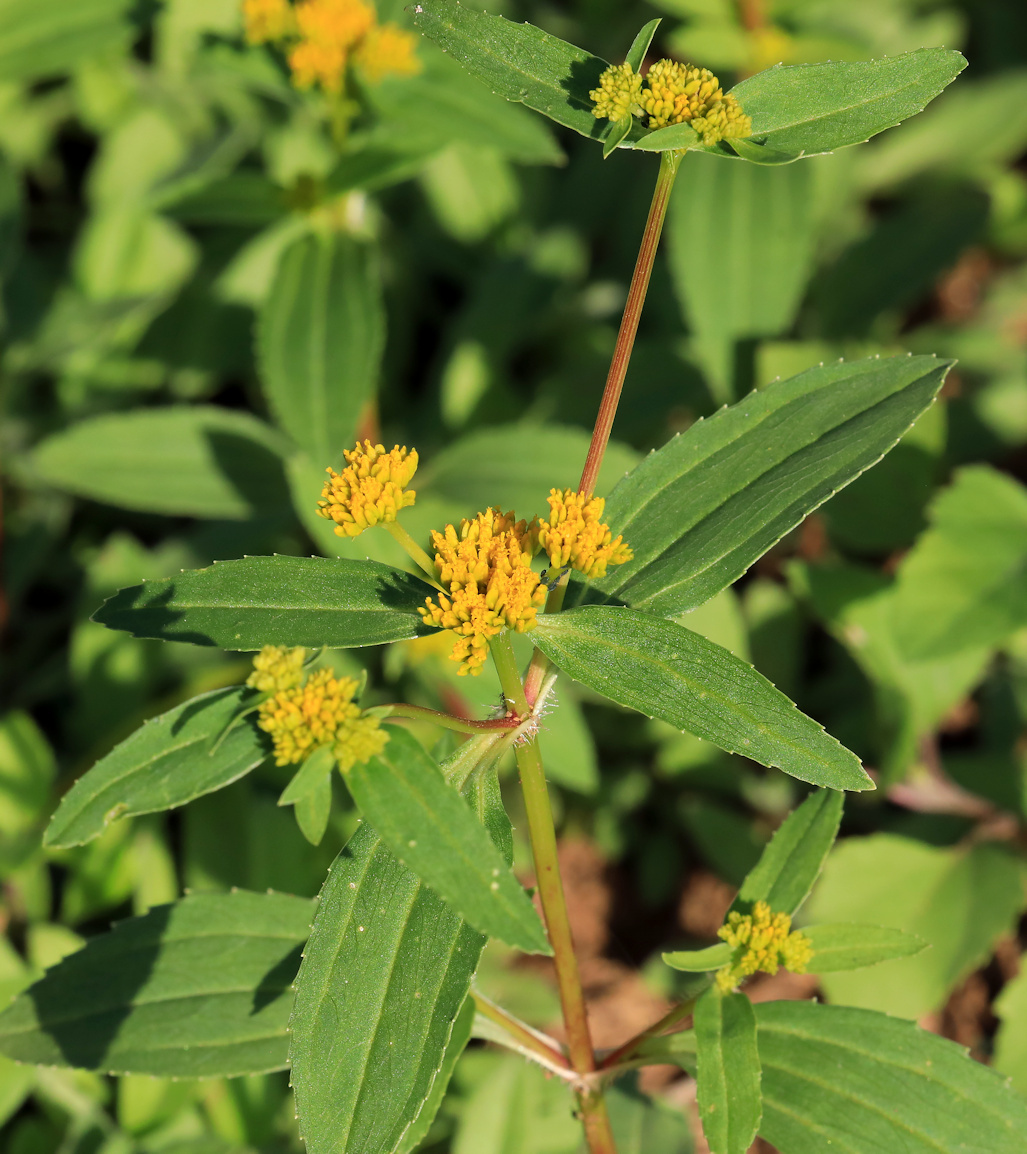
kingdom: Plantae
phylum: Tracheophyta
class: Magnoliopsida
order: Asterales
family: Asteraceae
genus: Flaveria
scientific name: Flaveria bidentis
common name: Coastal plain yellowtops
